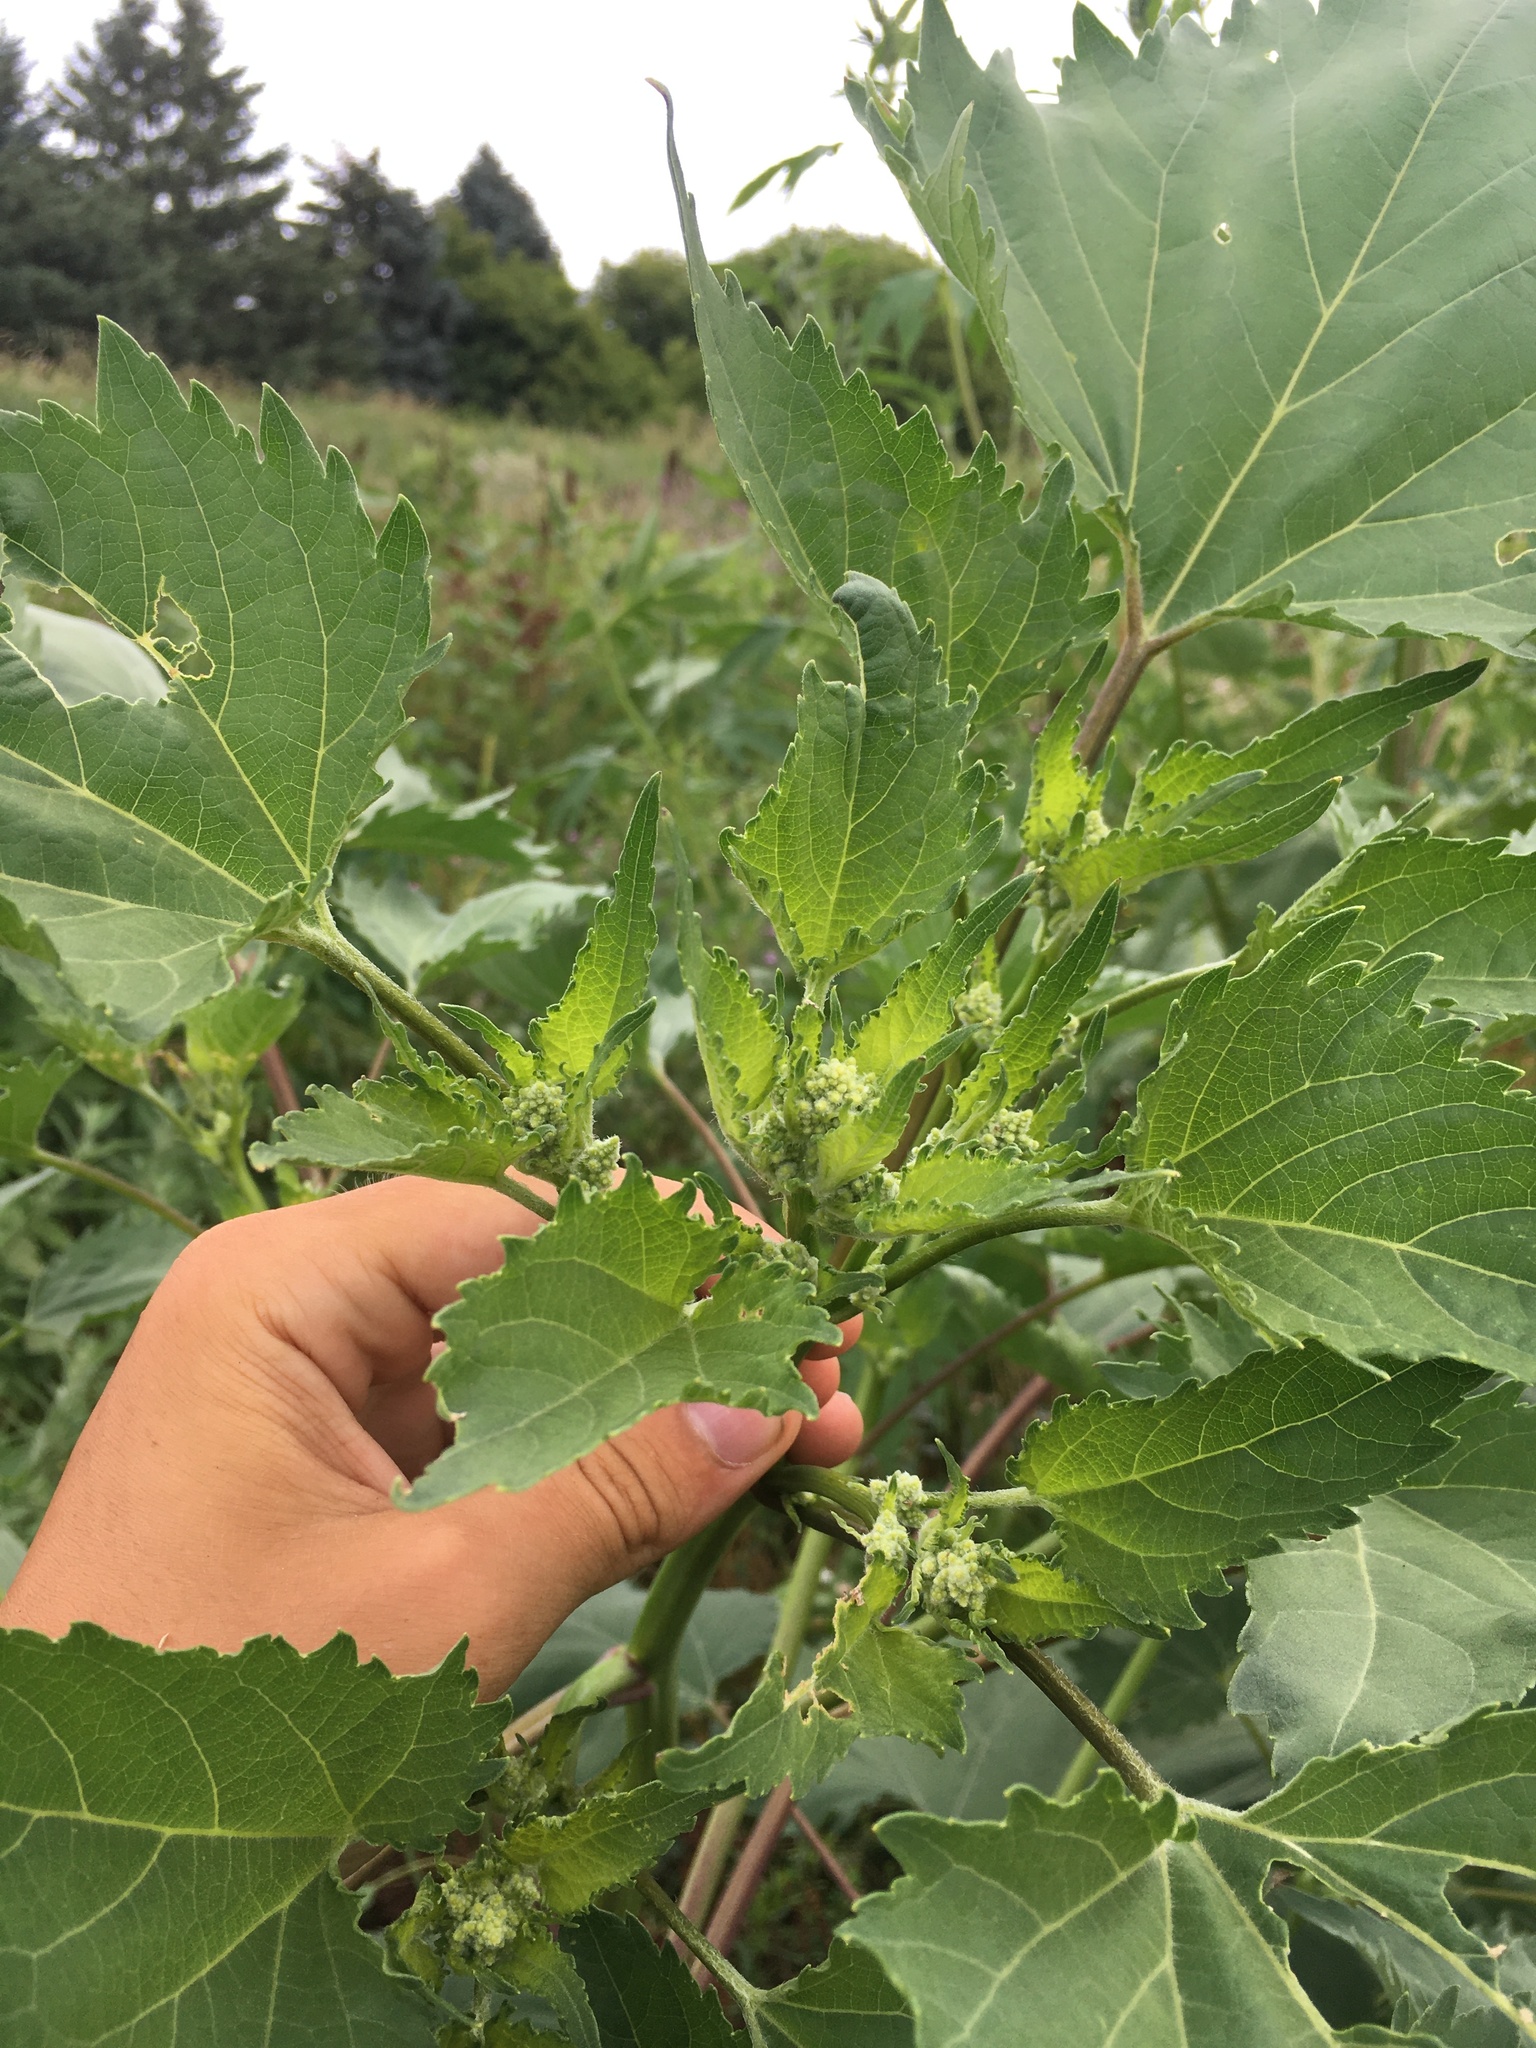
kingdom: Plantae
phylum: Tracheophyta
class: Magnoliopsida
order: Asterales
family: Asteraceae
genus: Cyclachaena
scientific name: Cyclachaena xanthiifolia
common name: Giant sumpweed
